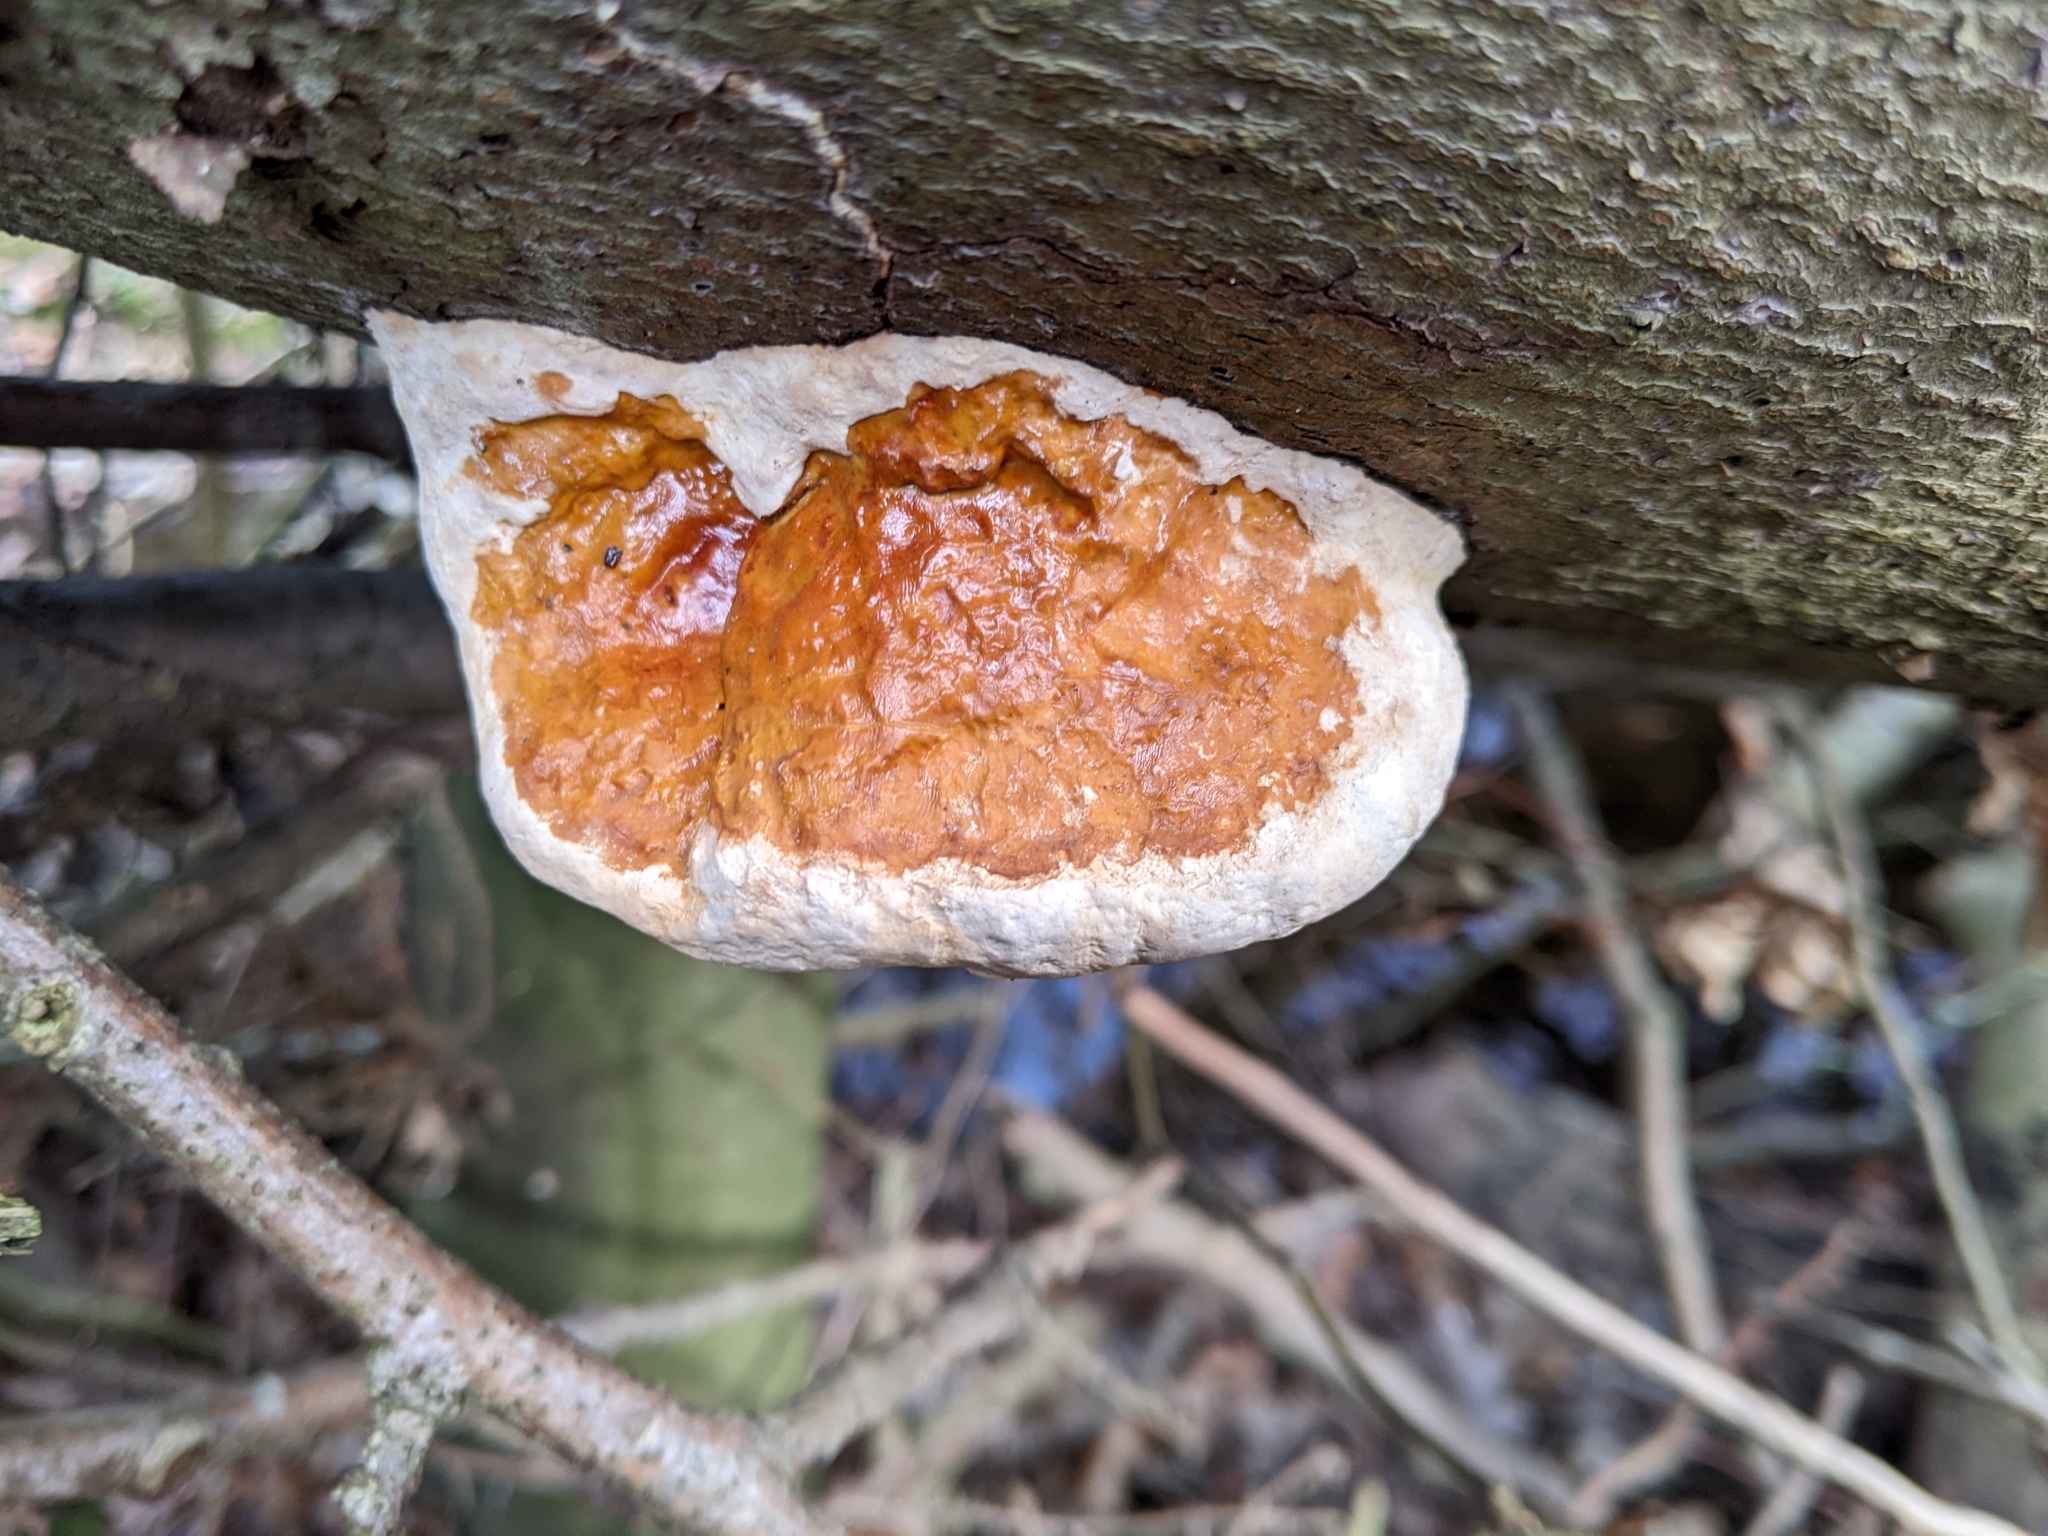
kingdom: Fungi
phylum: Basidiomycota
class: Agaricomycetes
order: Polyporales
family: Fomitopsidaceae
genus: Fomitopsis
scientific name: Fomitopsis pinicola
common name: Red-belted bracket
